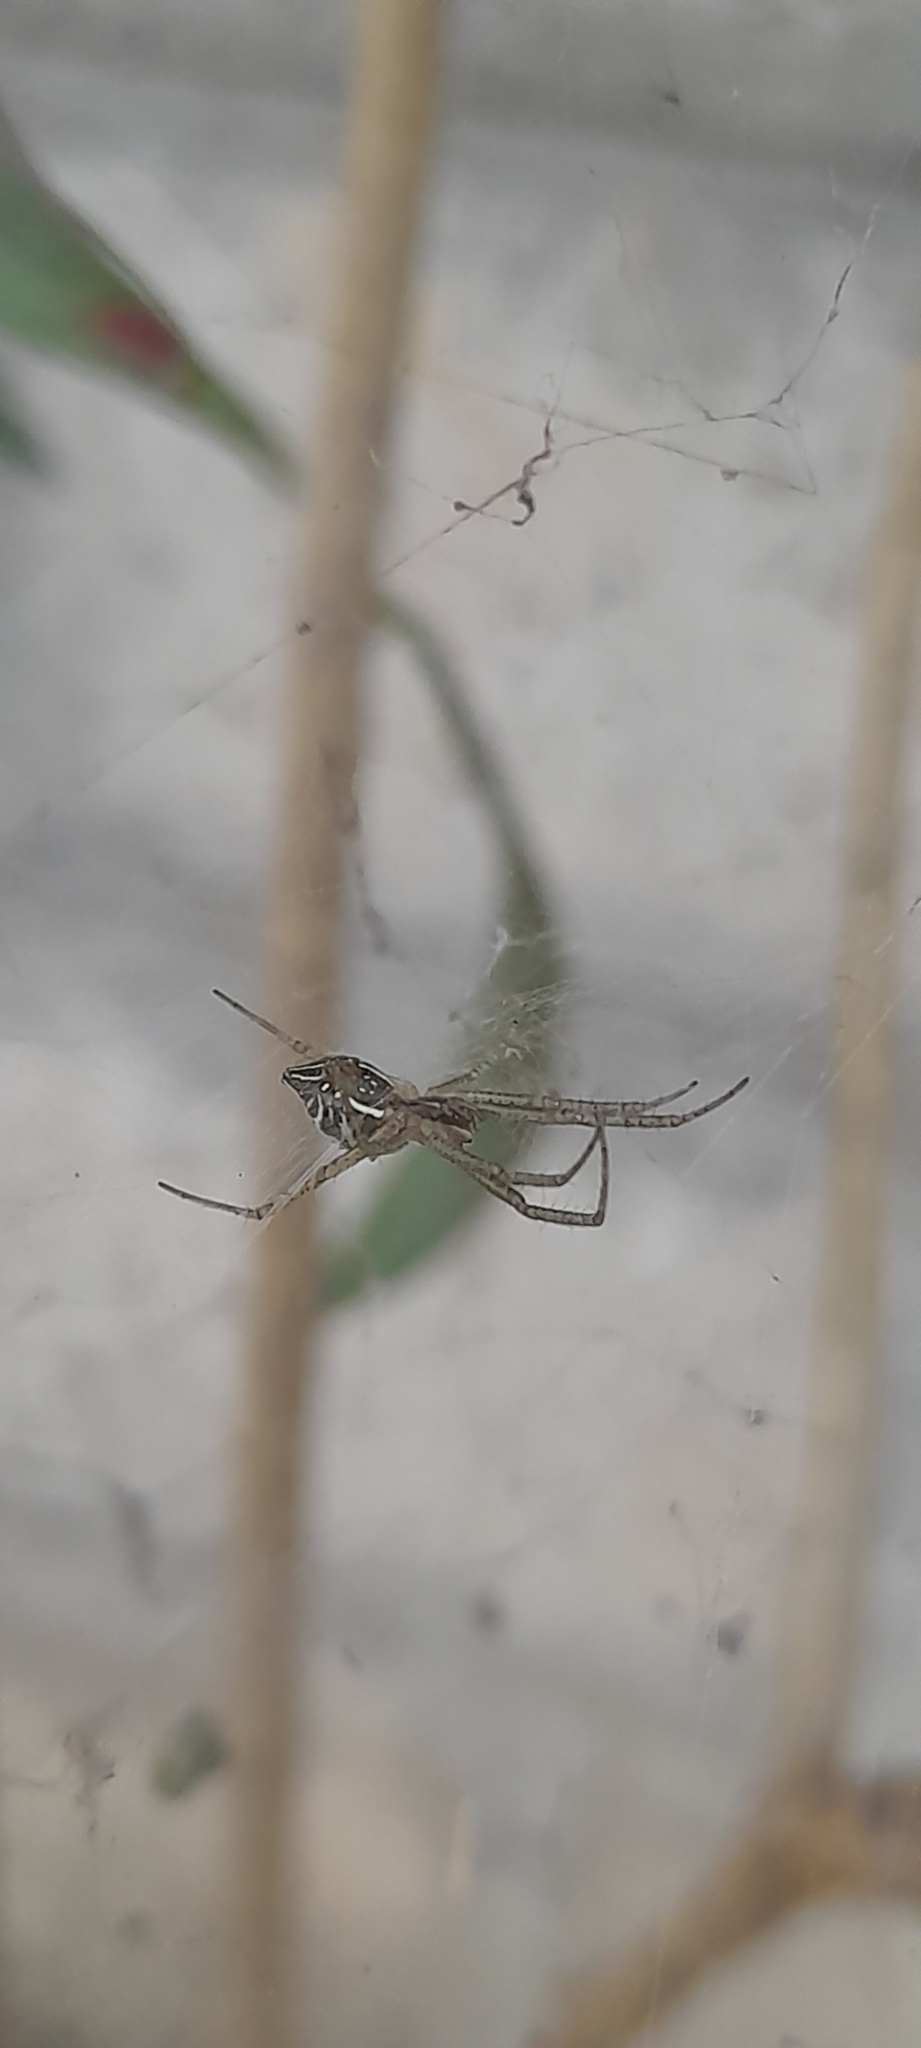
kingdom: Animalia
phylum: Arthropoda
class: Arachnida
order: Araneae
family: Araneidae
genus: Cyrtophora
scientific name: Cyrtophora cicatrosa
